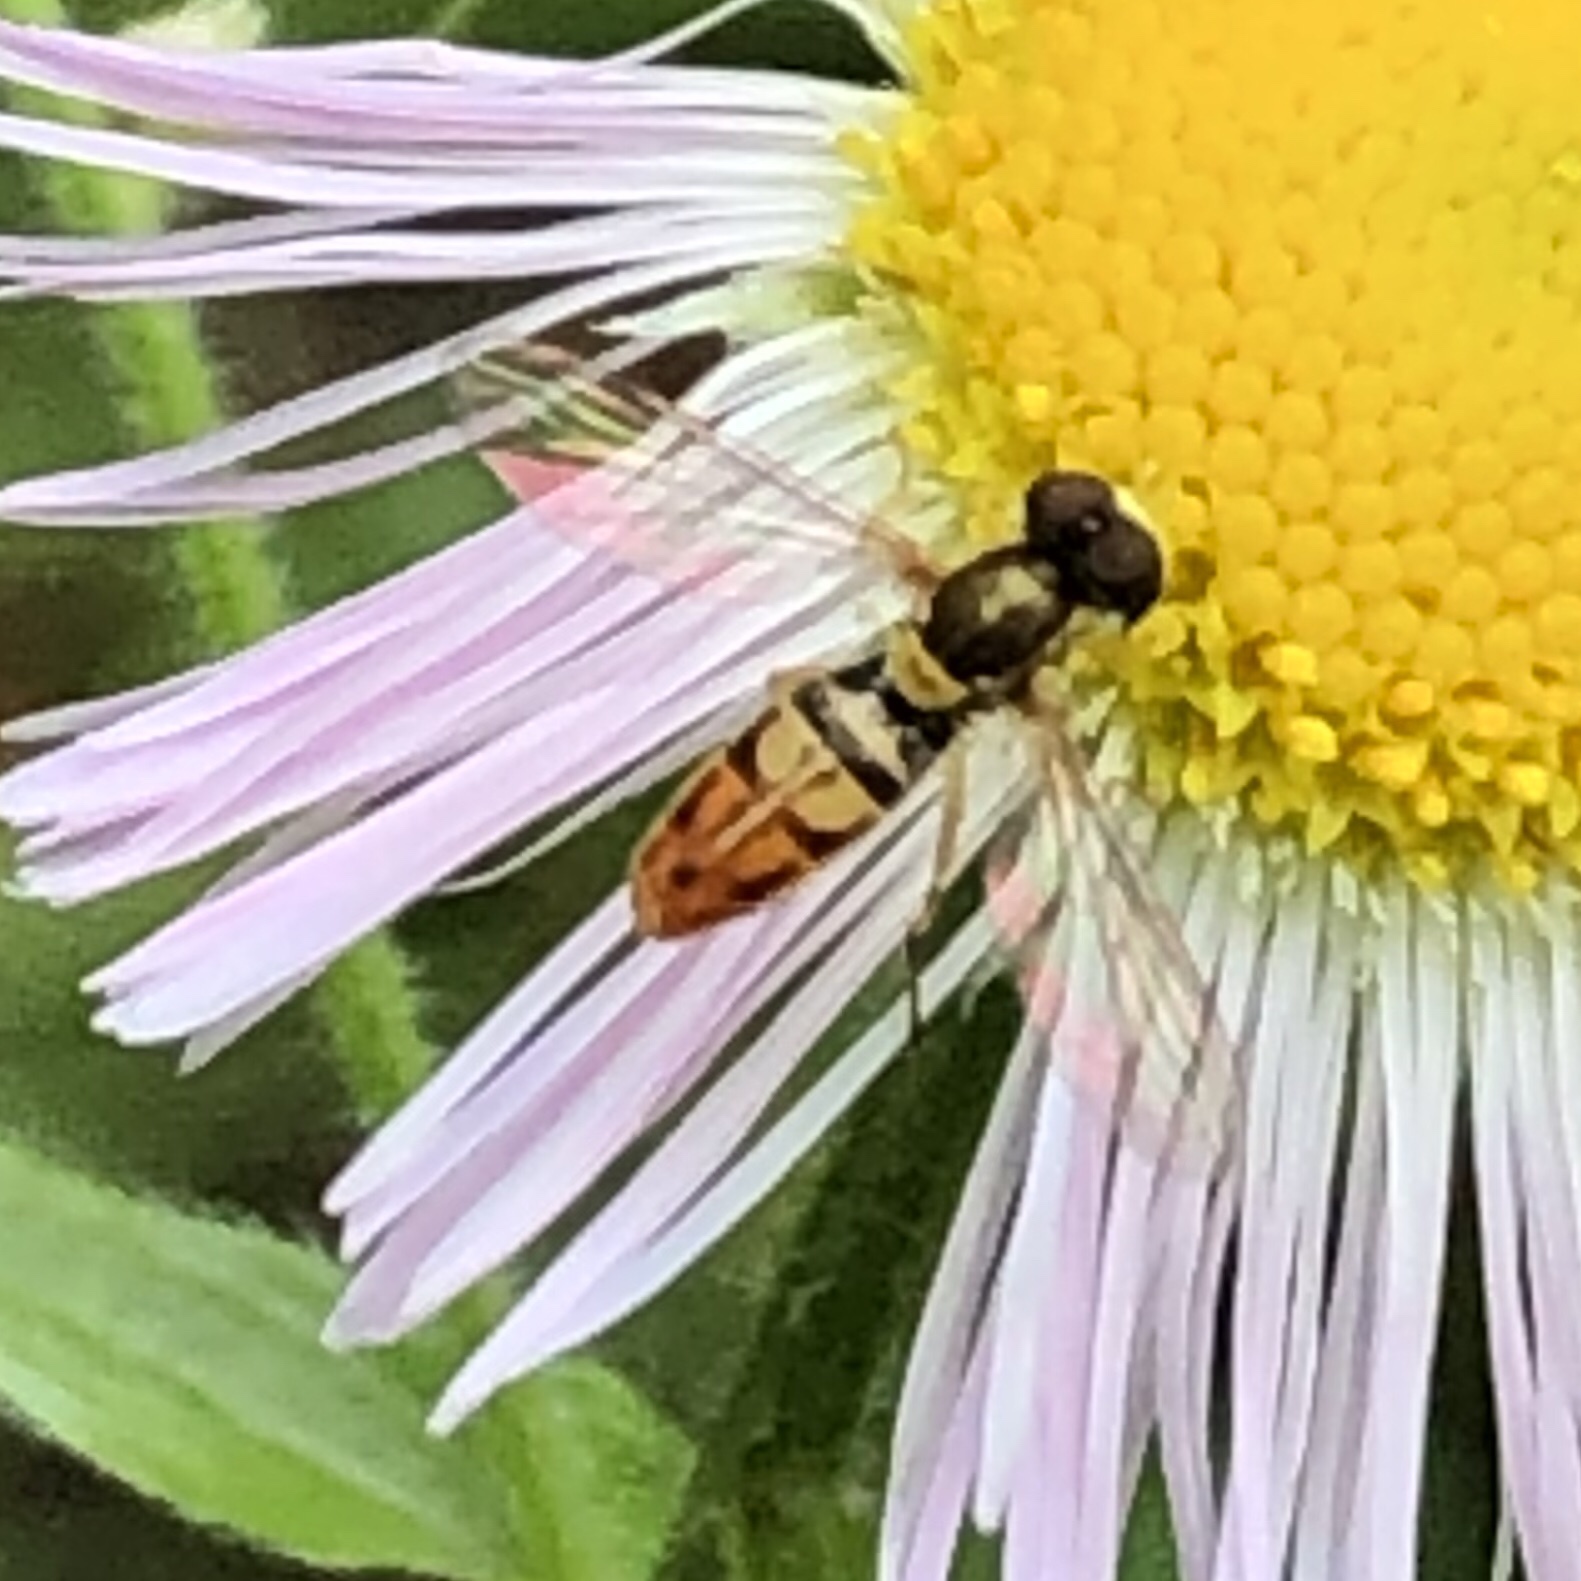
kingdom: Animalia
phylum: Arthropoda
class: Insecta
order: Diptera
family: Syrphidae
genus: Toxomerus
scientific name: Toxomerus marginatus
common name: Syrphid fly
